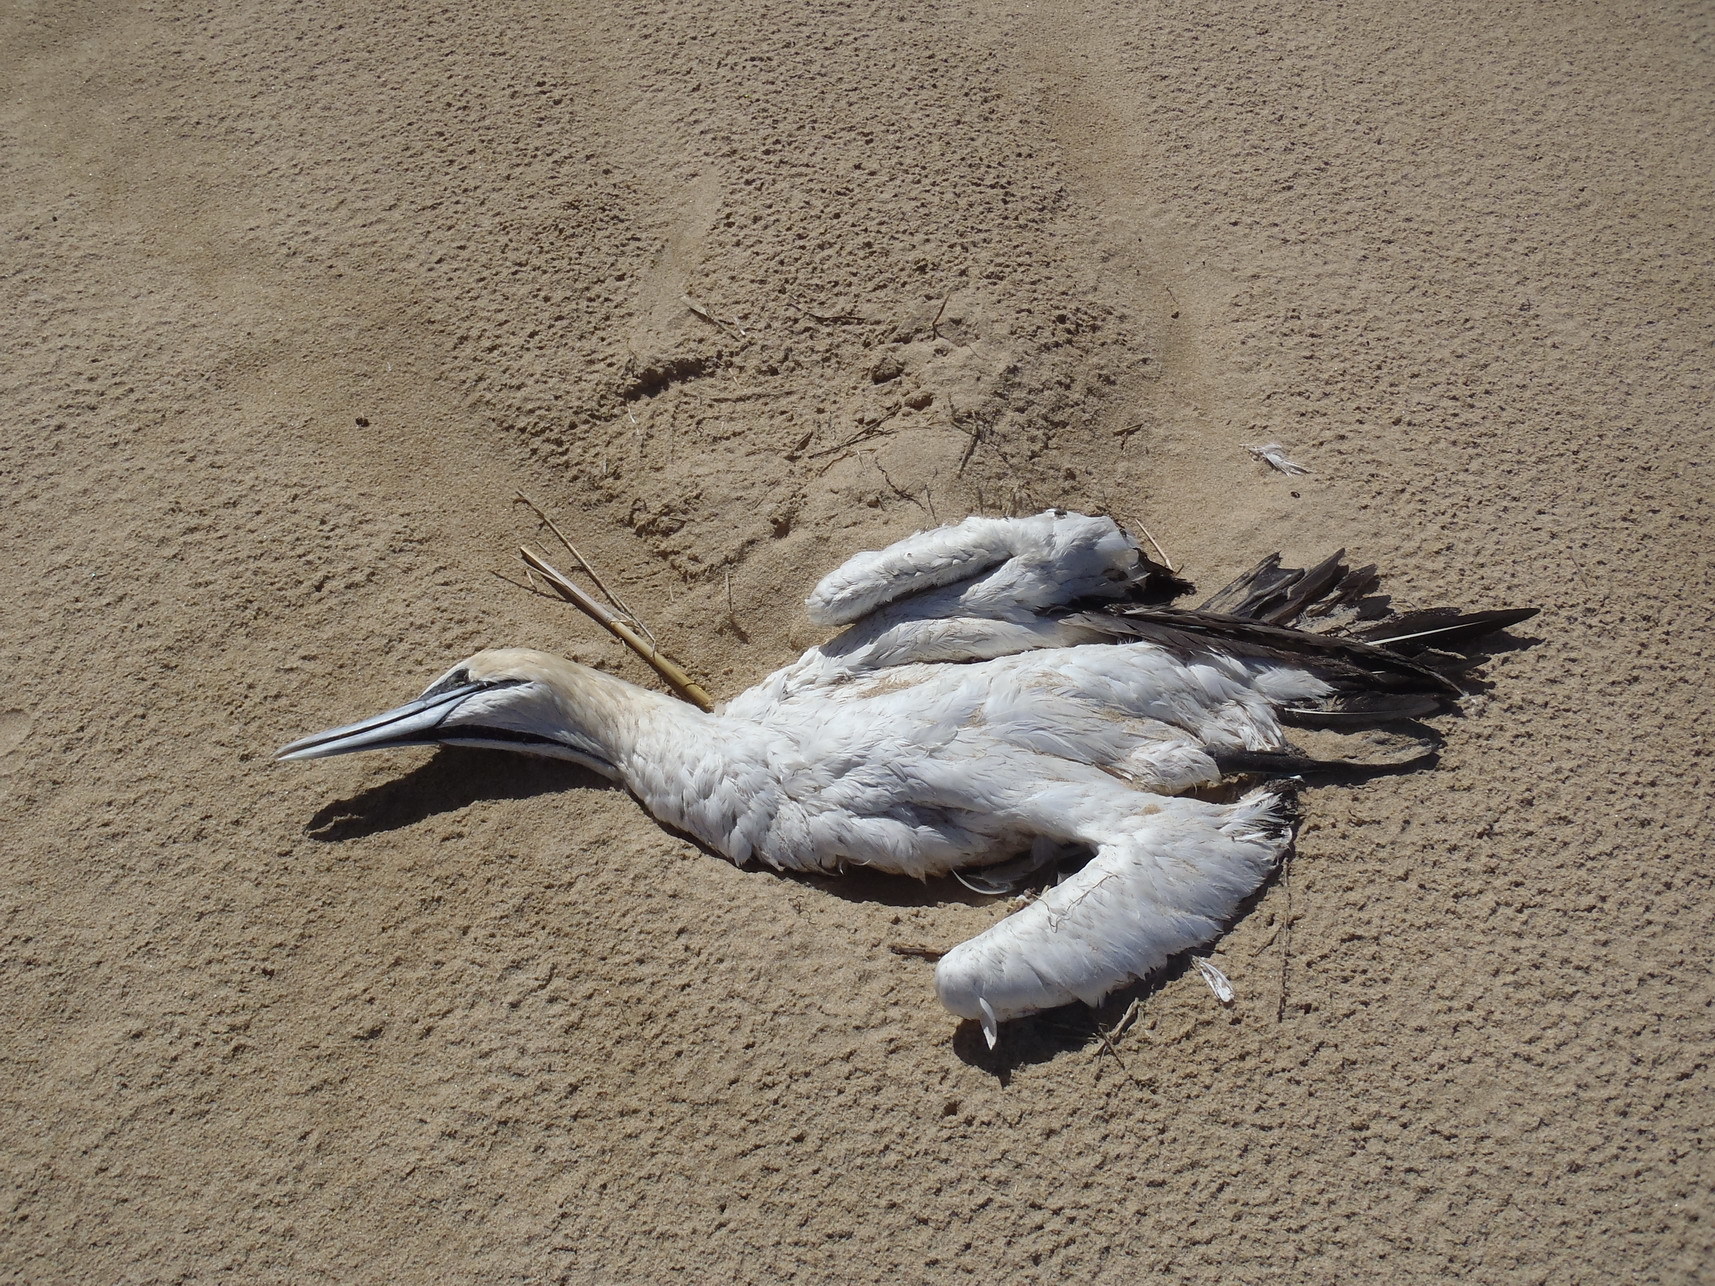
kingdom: Animalia
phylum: Chordata
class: Aves
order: Suliformes
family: Sulidae
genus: Morus
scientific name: Morus capensis
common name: Cape gannet
